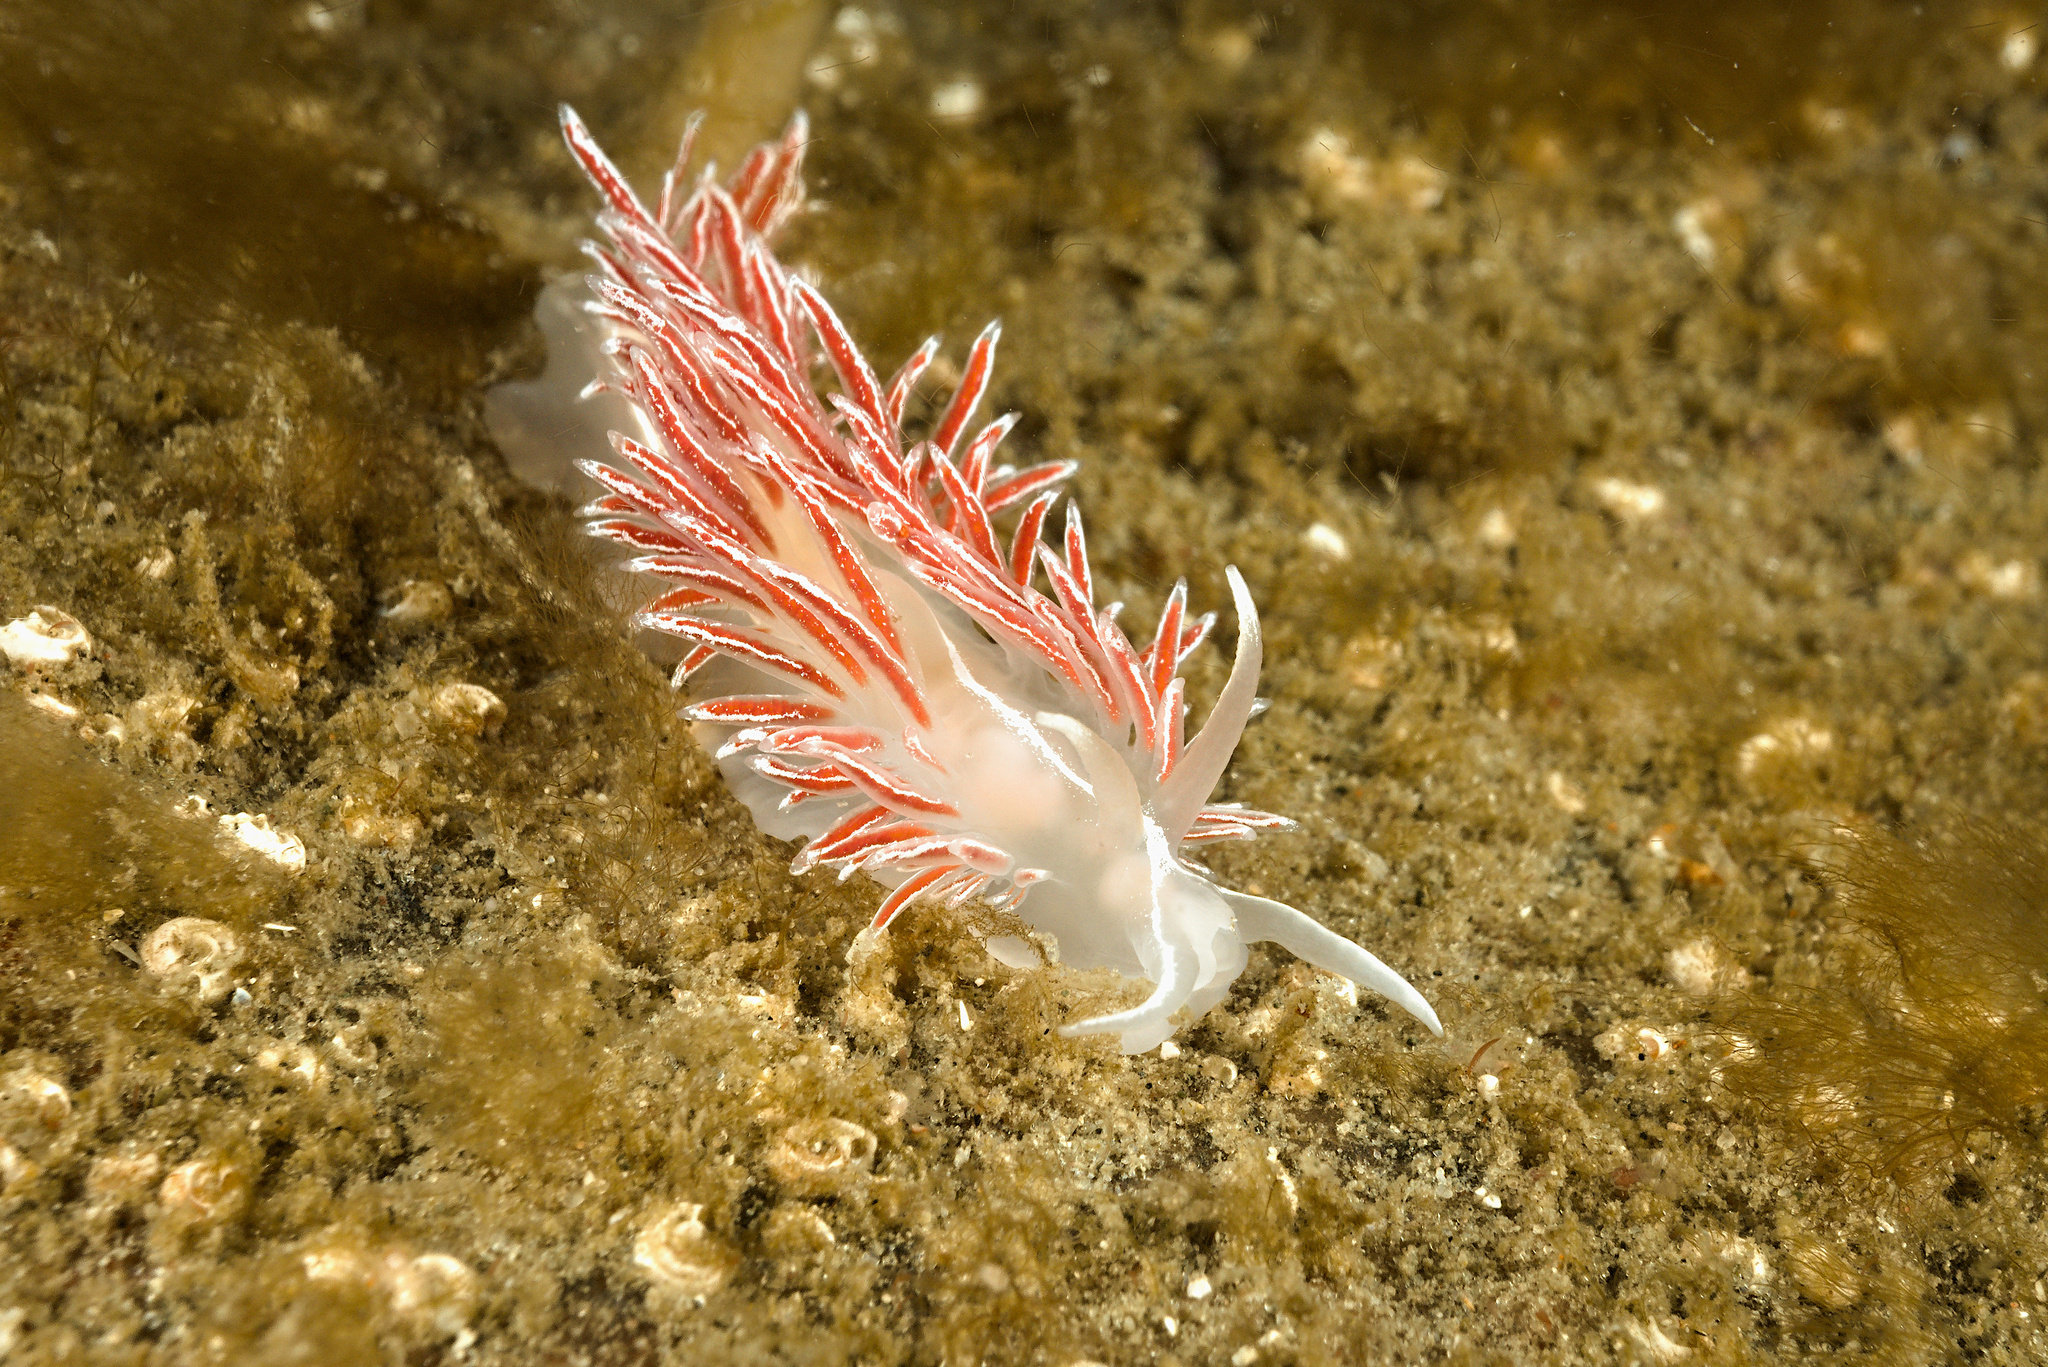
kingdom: Animalia
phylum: Mollusca
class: Gastropoda
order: Nudibranchia
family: Coryphellidae
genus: Coryphella
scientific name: Coryphella monicae
